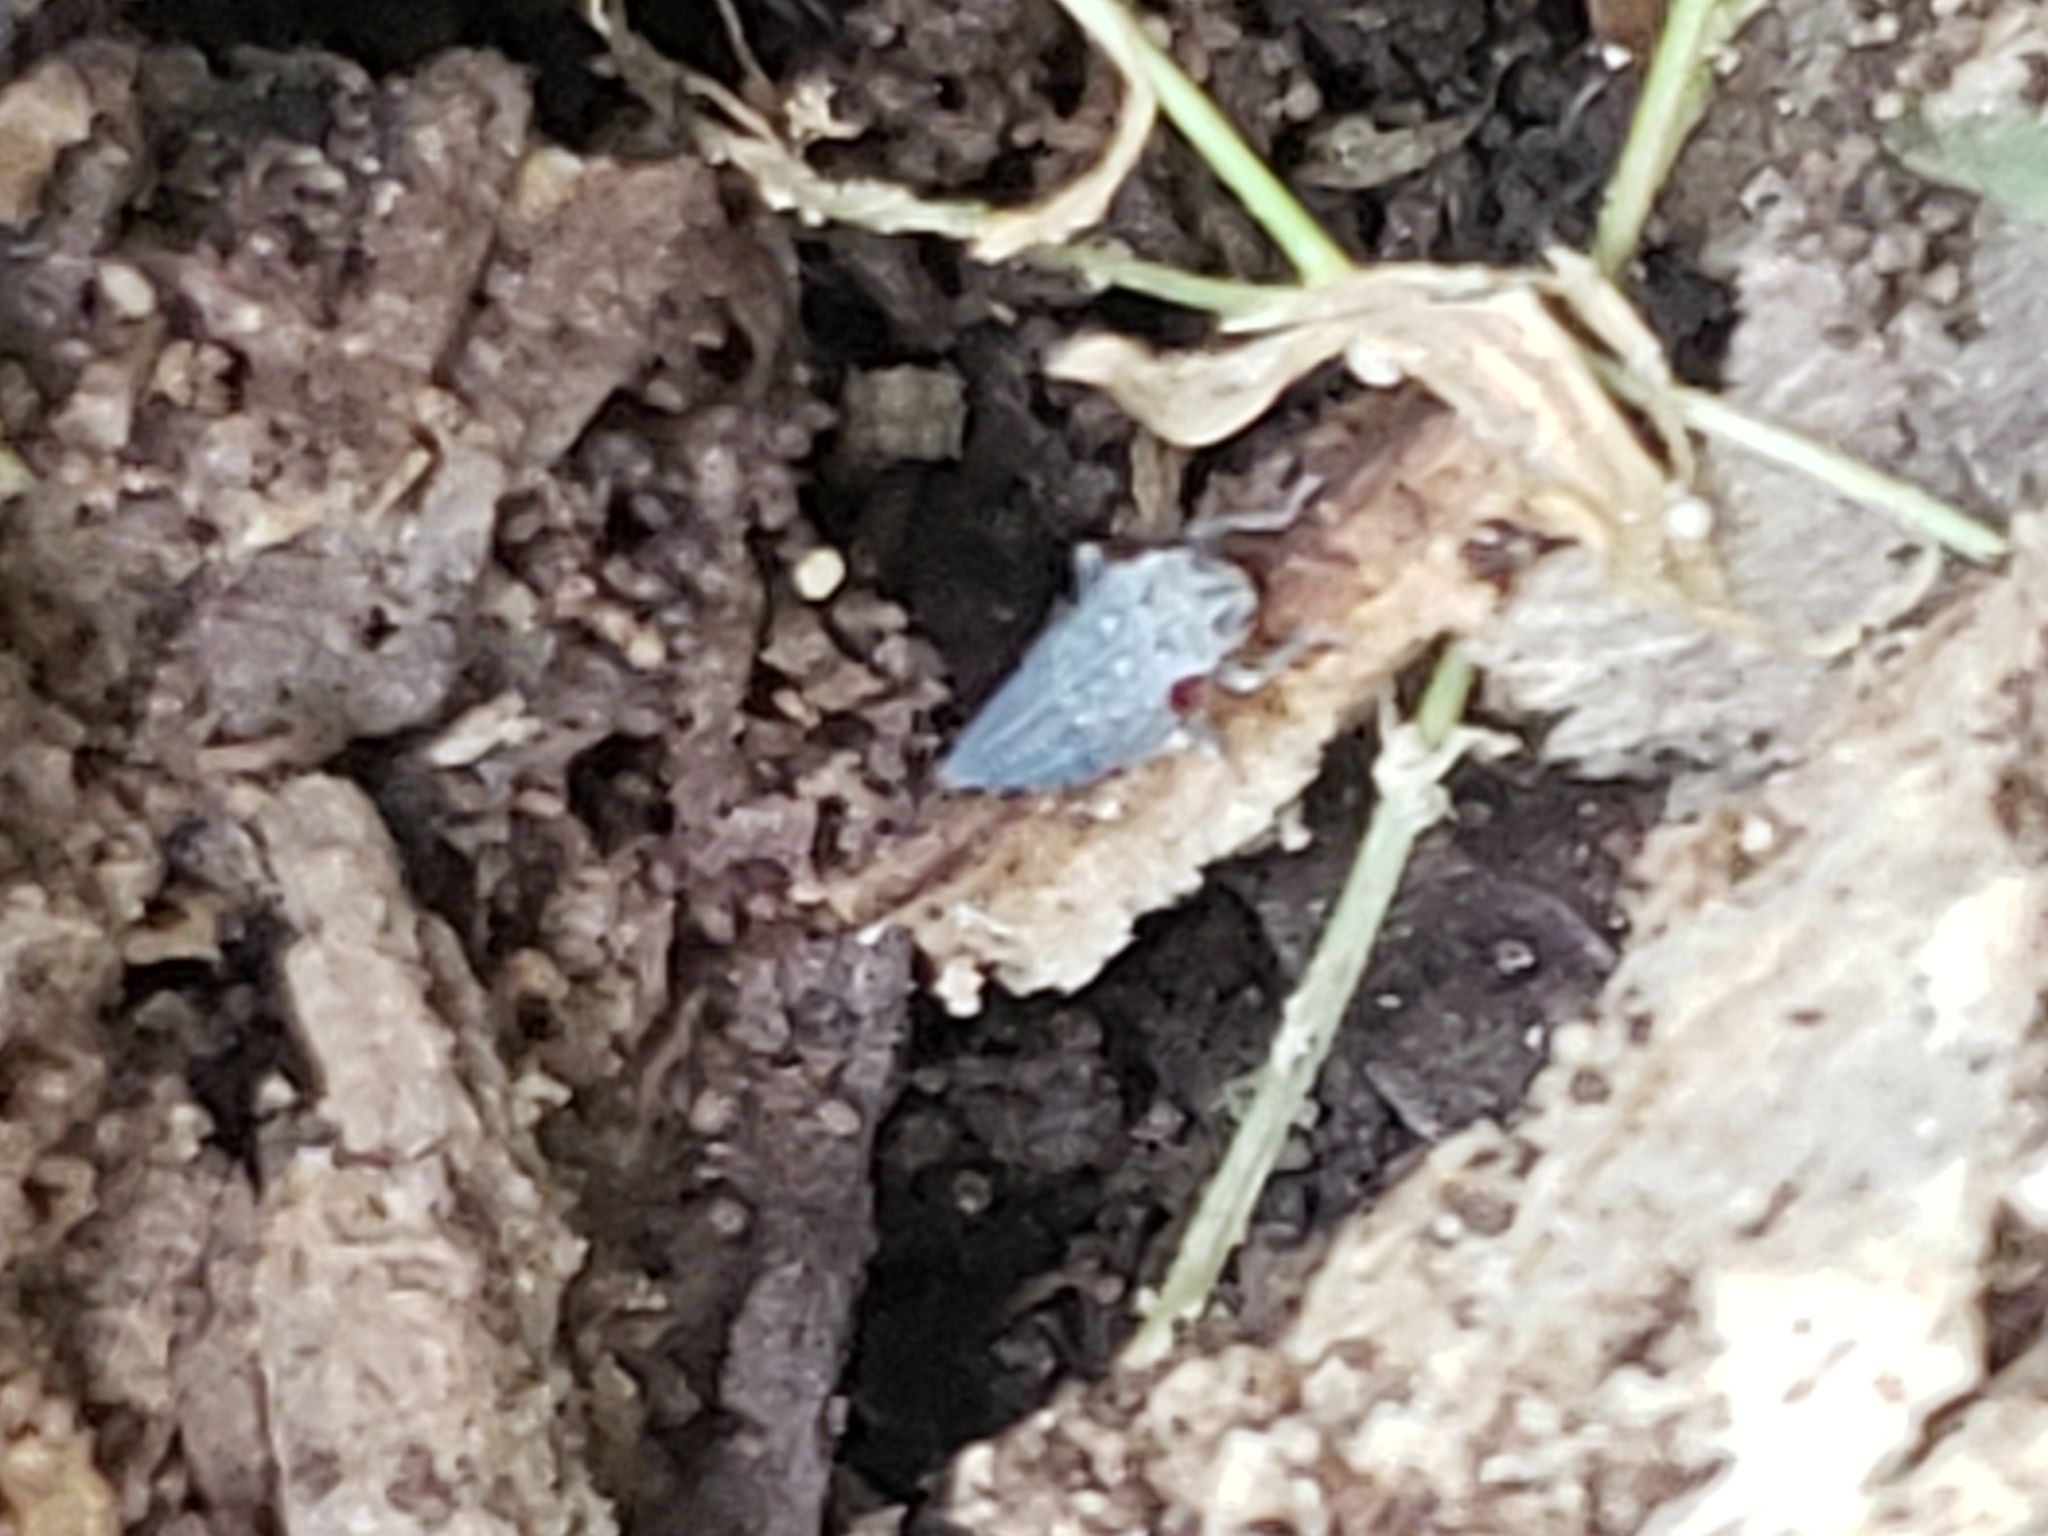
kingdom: Animalia
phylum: Arthropoda
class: Insecta
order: Hemiptera
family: Cicadellidae
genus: Oncometopia
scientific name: Oncometopia orbona
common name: Broad-headed sharpshooter
